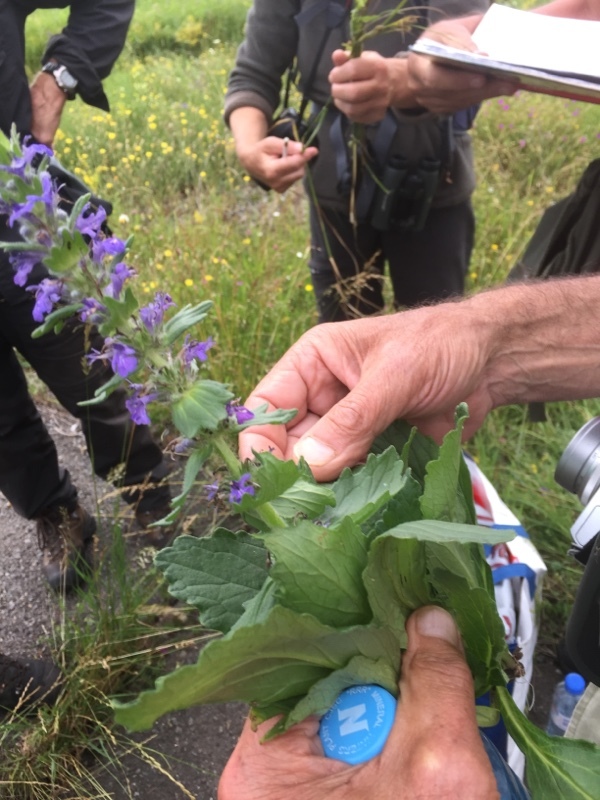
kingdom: Plantae
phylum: Tracheophyta
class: Magnoliopsida
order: Lamiales
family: Lamiaceae
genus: Ajuga
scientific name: Ajuga genevensis
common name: Blue bugle
